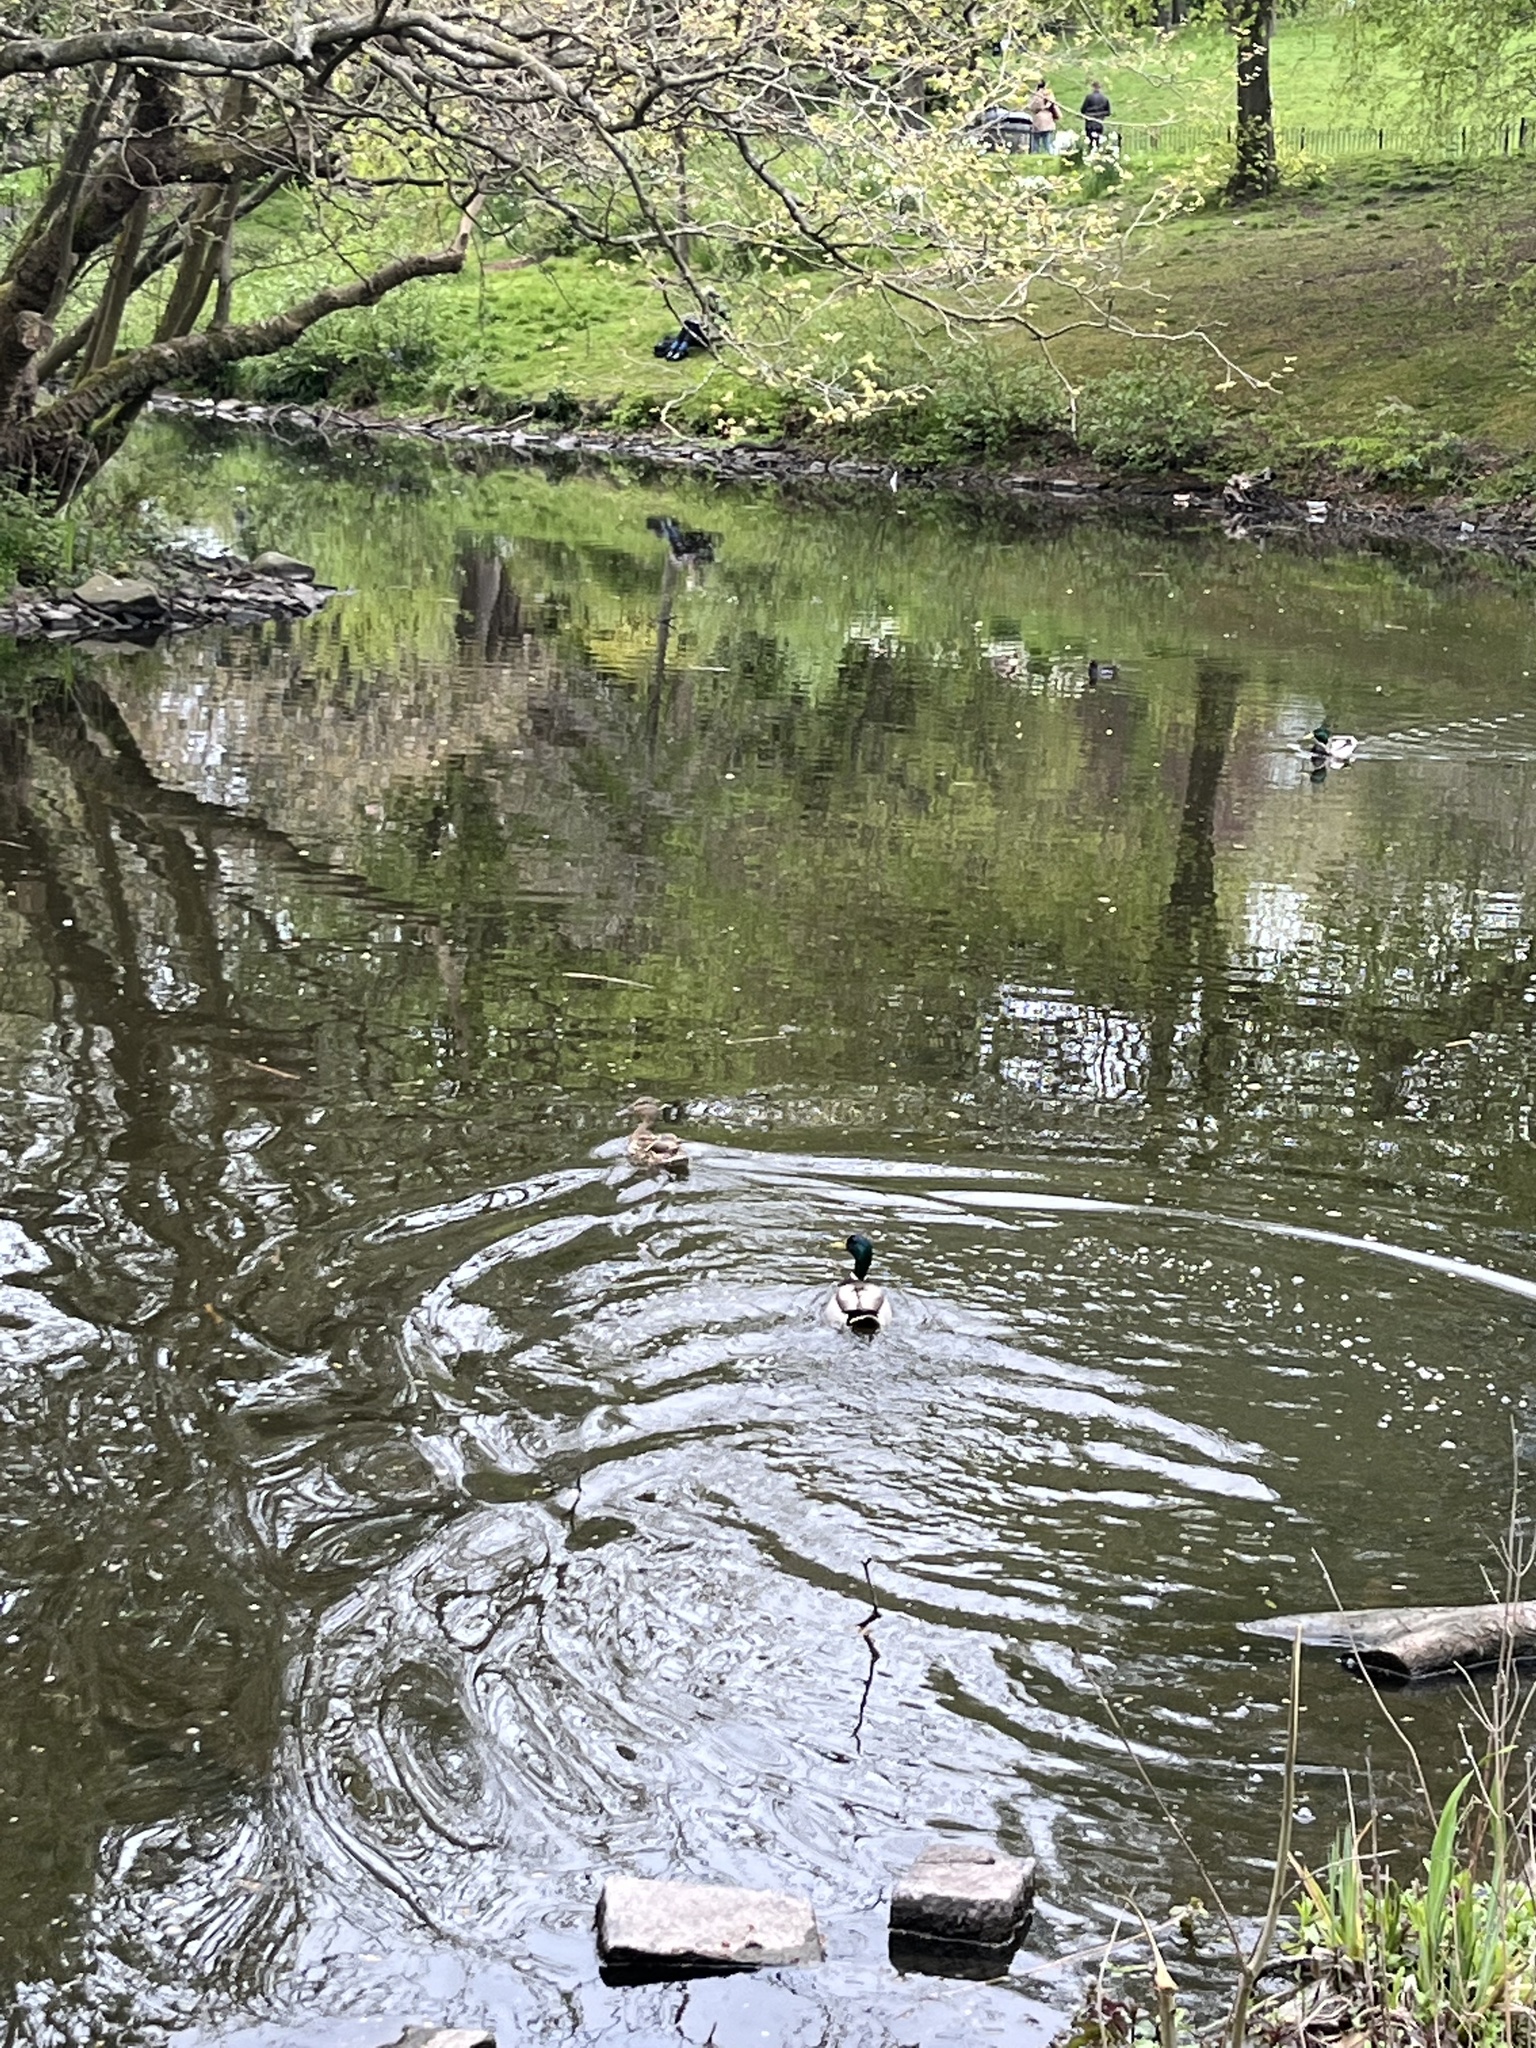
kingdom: Animalia
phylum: Chordata
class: Aves
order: Anseriformes
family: Anatidae
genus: Anas
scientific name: Anas platyrhynchos
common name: Mallard
